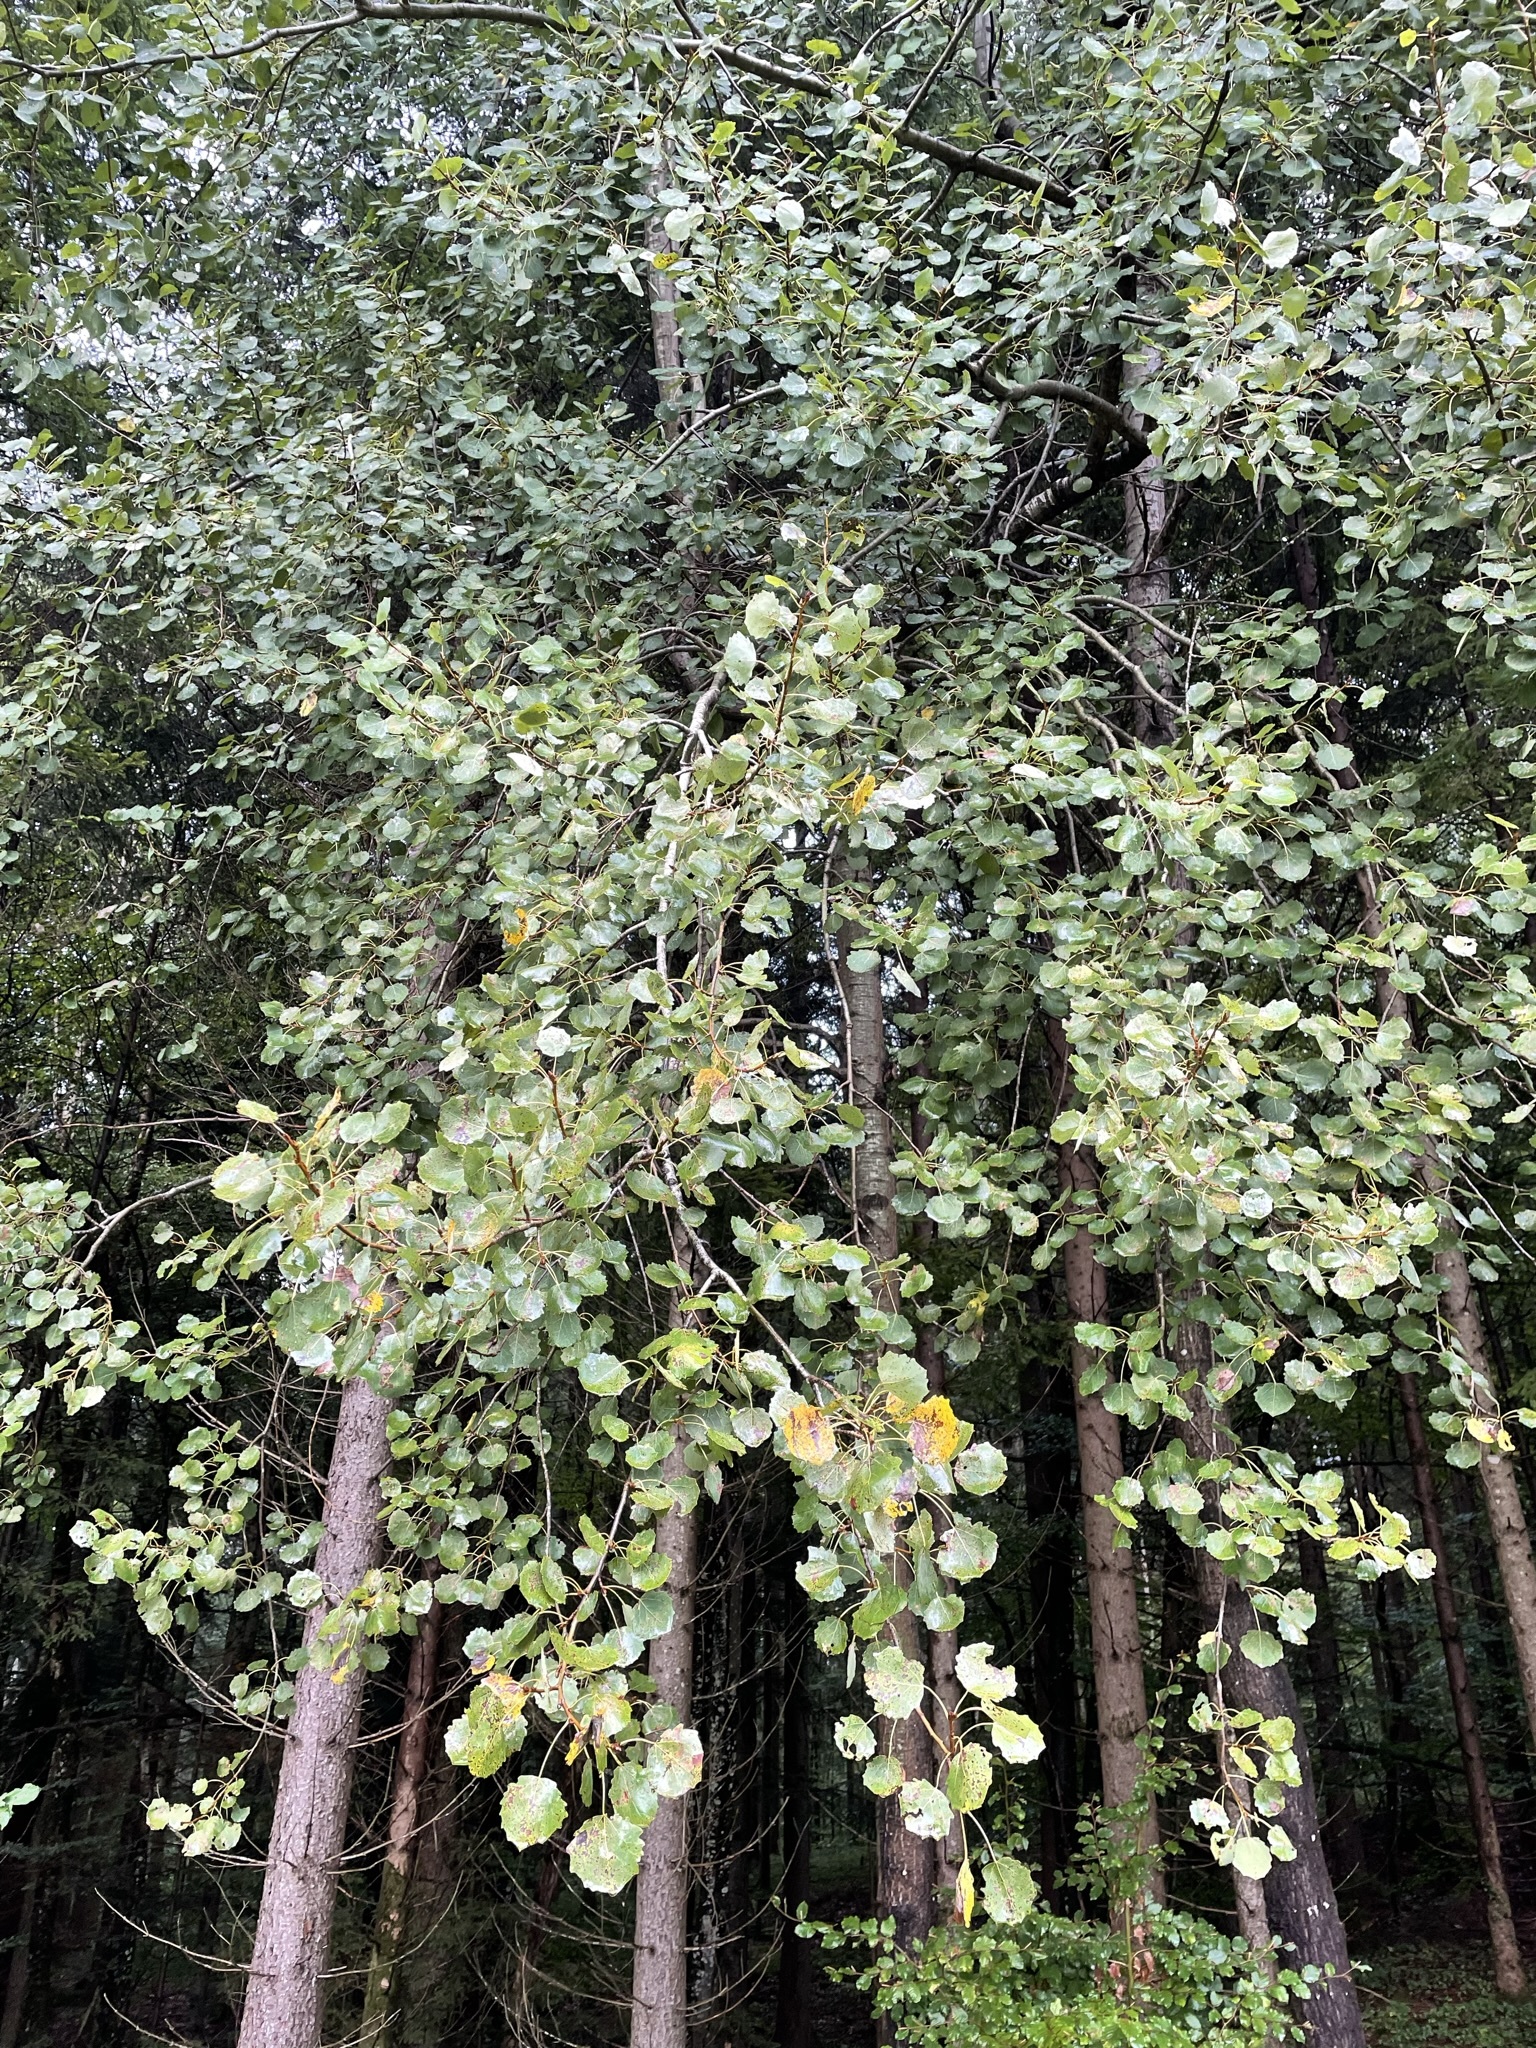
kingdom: Plantae
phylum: Tracheophyta
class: Magnoliopsida
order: Malpighiales
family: Salicaceae
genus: Populus
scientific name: Populus tremula
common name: European aspen
